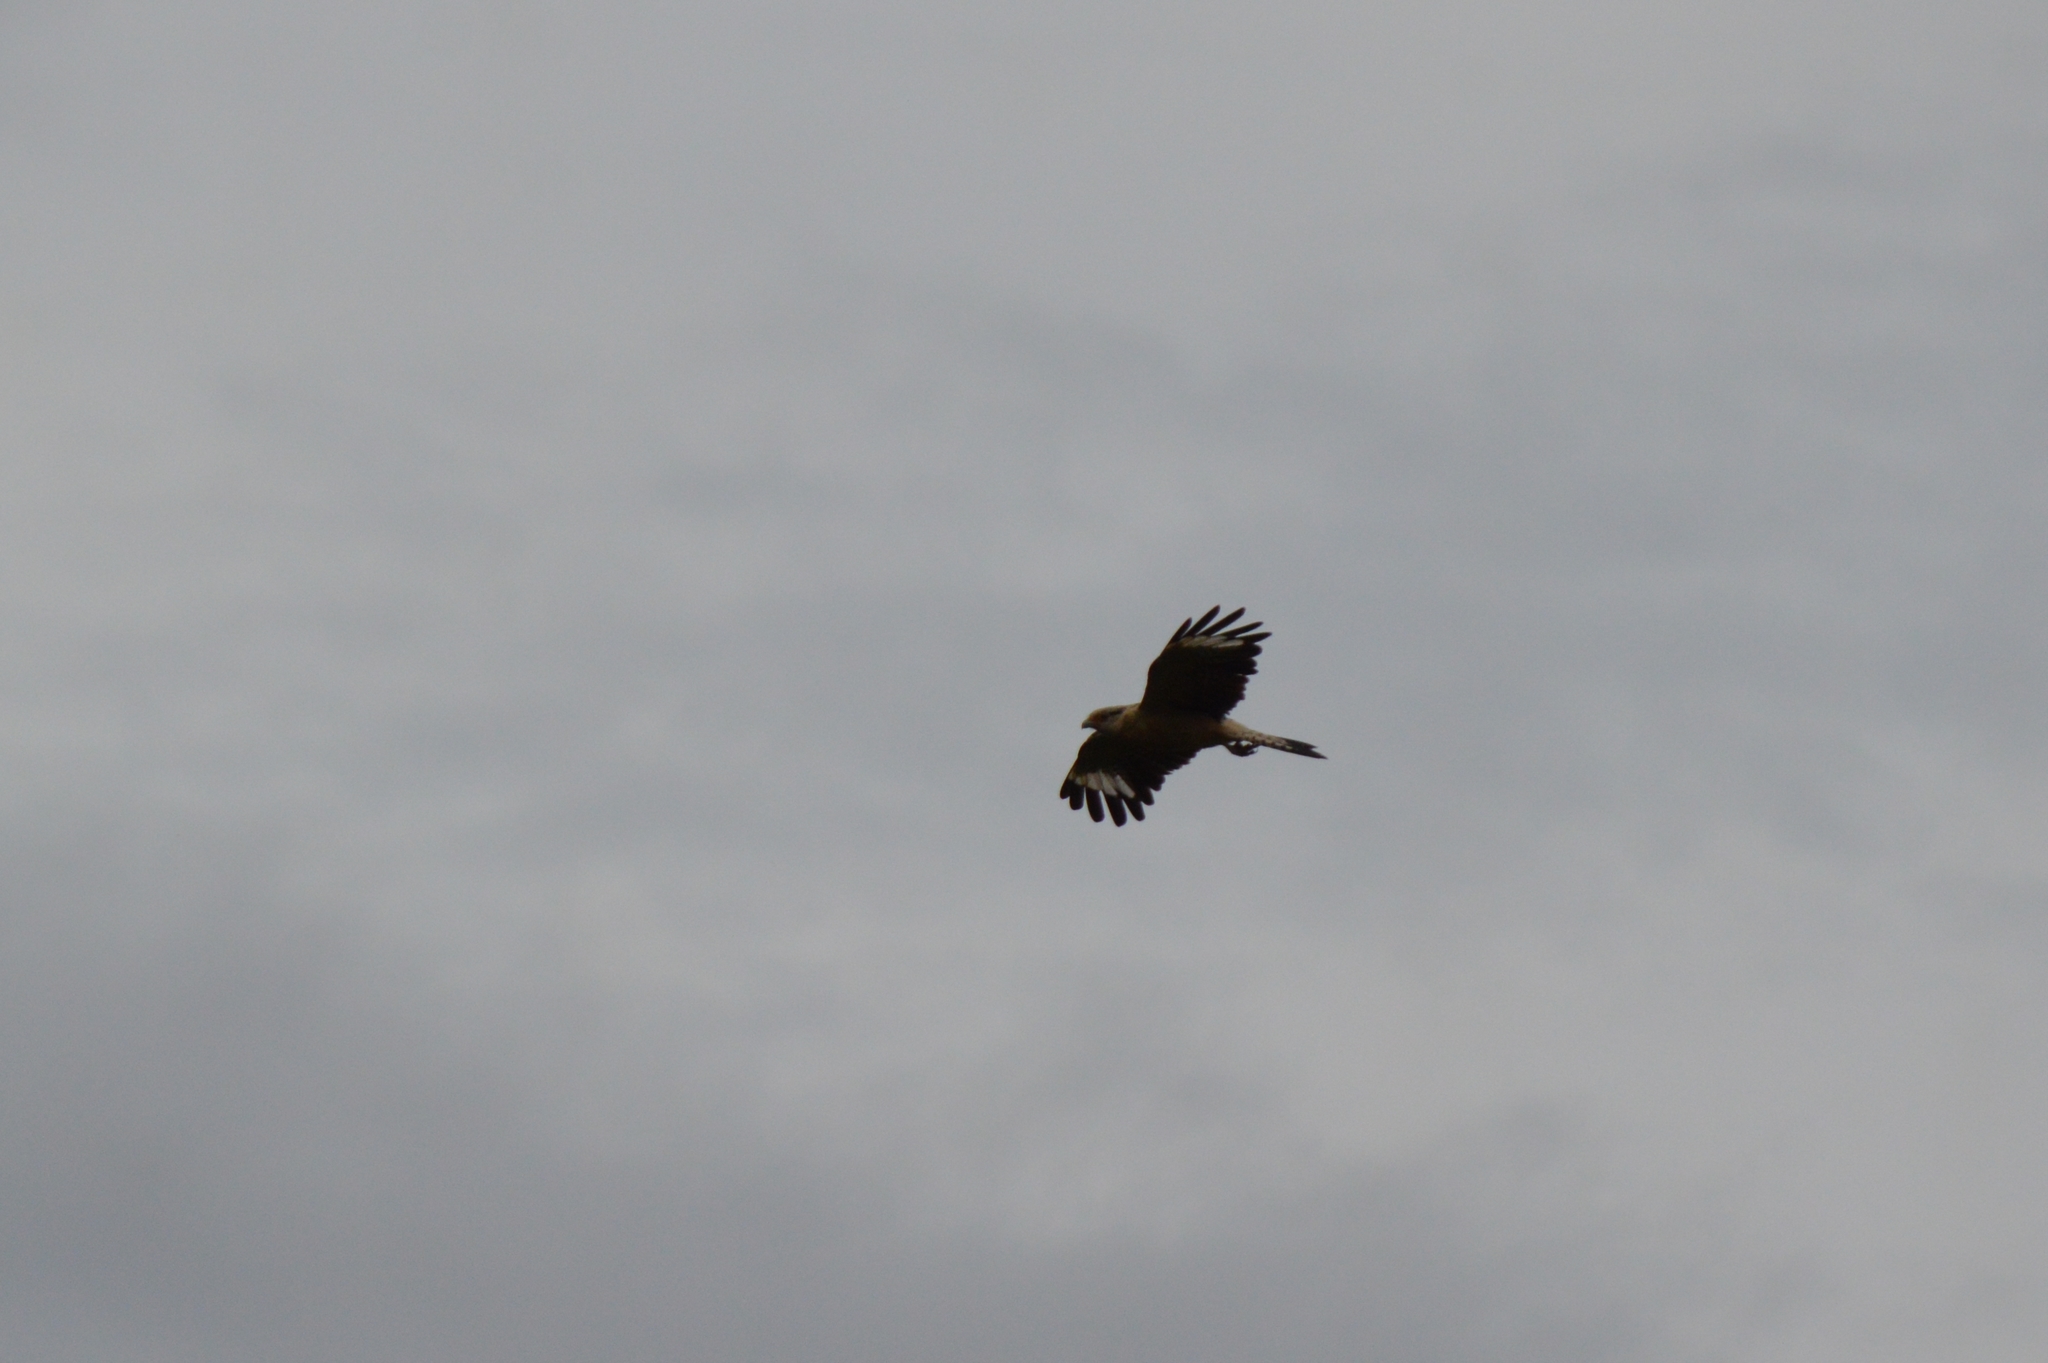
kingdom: Animalia
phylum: Chordata
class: Aves
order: Falconiformes
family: Falconidae
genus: Daptrius
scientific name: Daptrius
